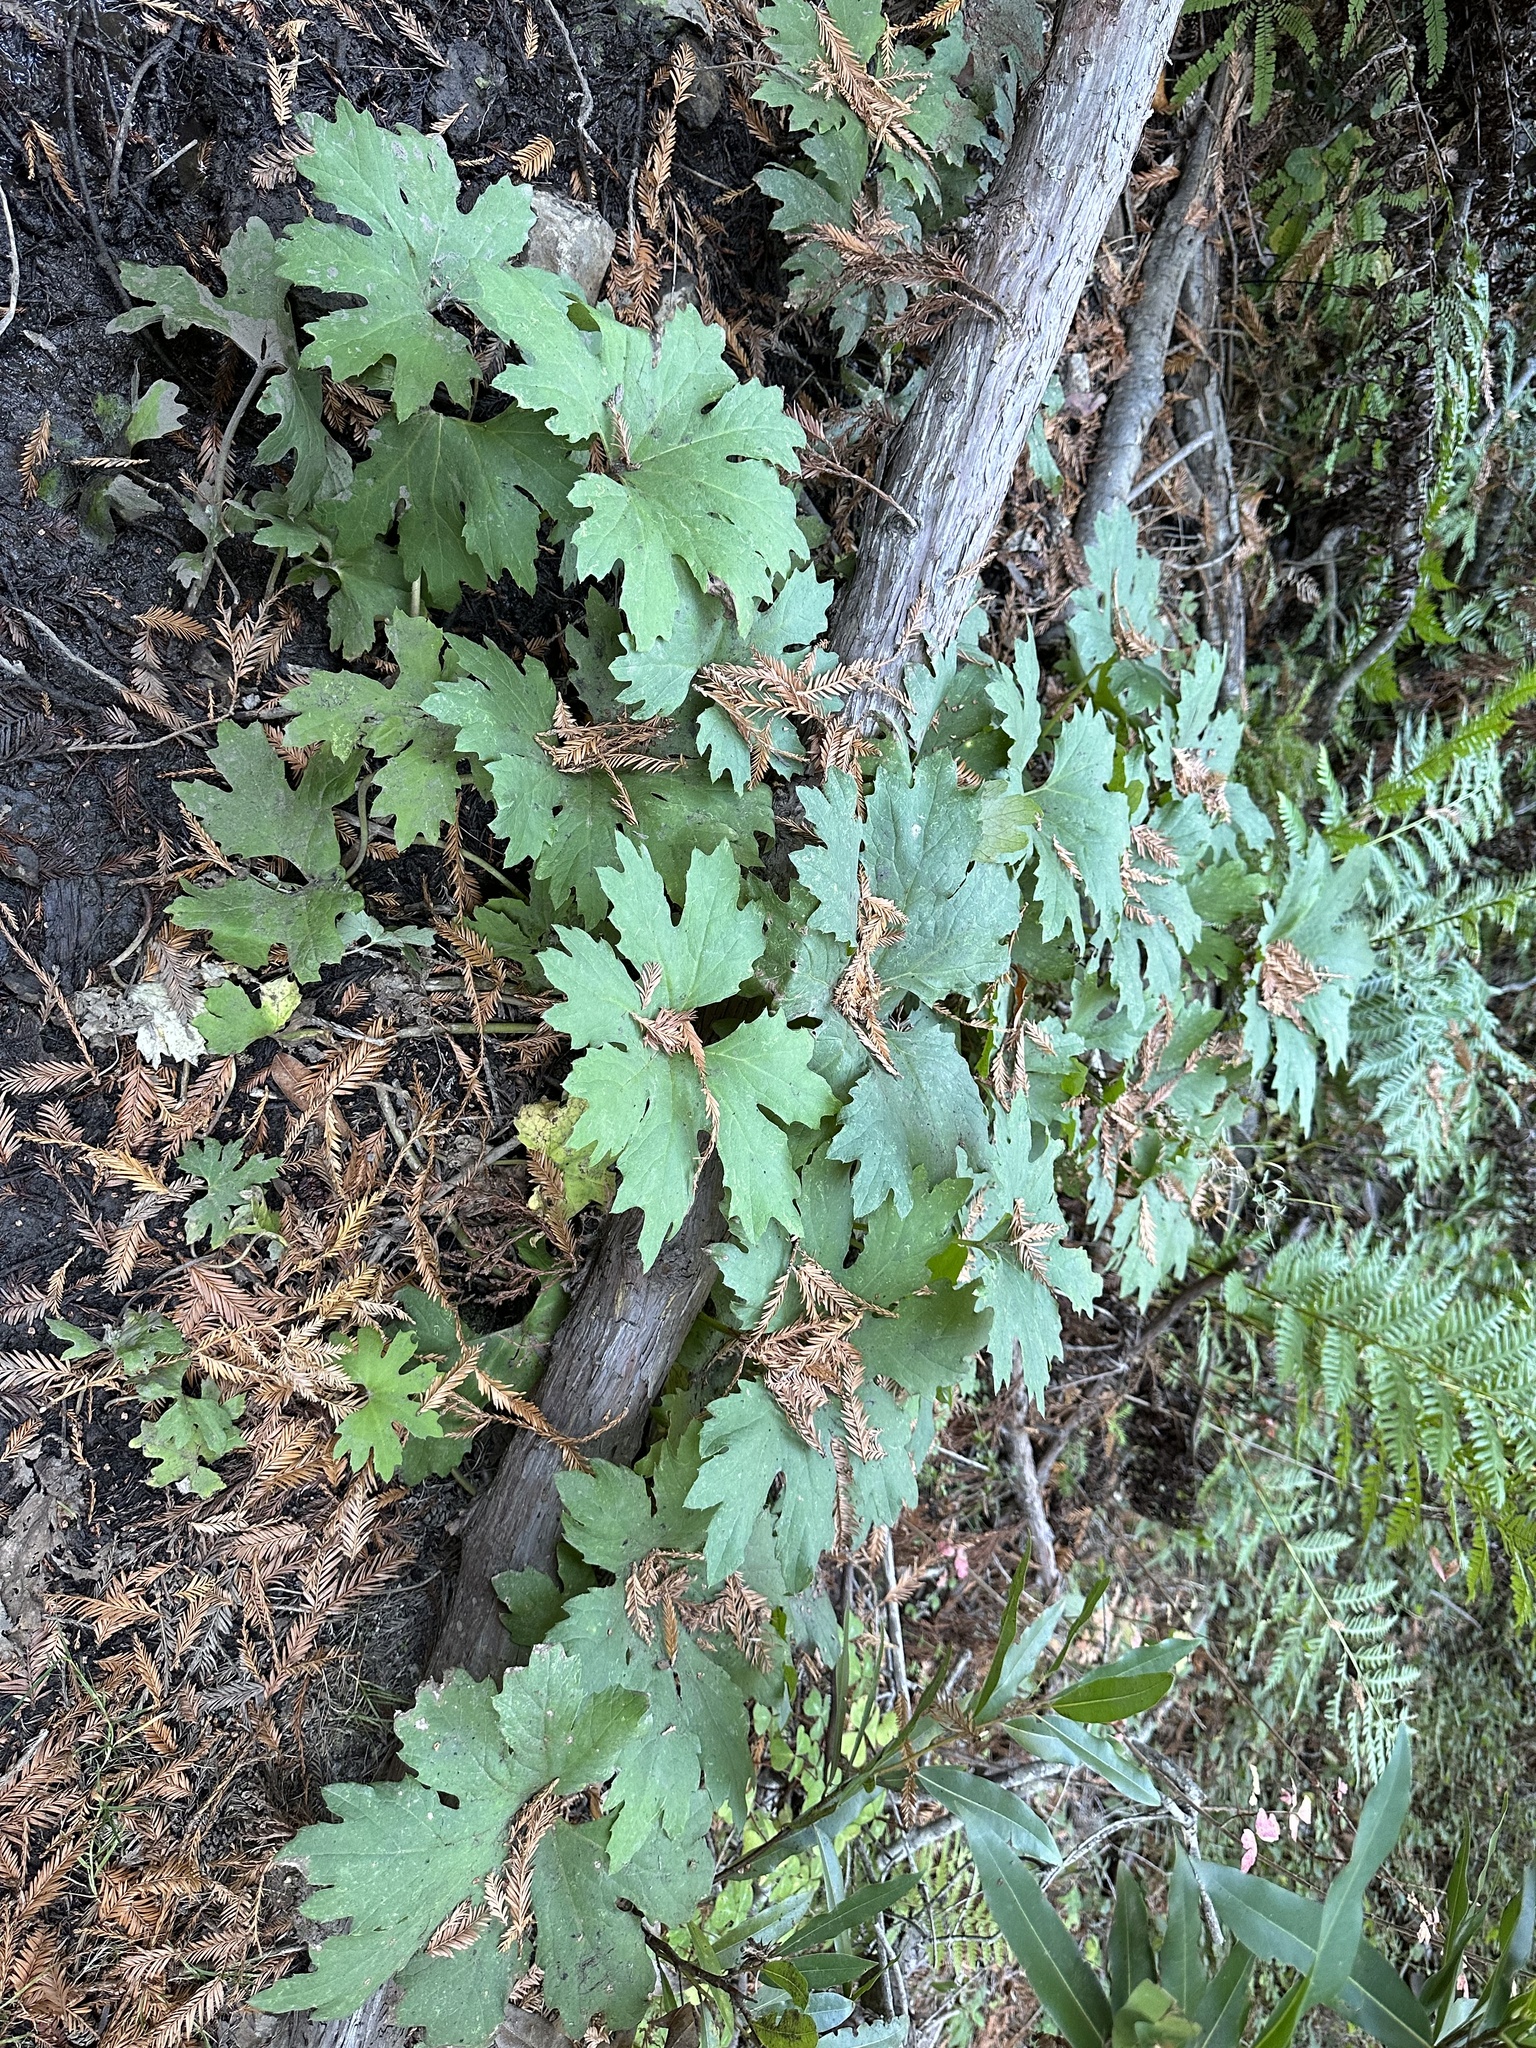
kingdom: Plantae
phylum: Tracheophyta
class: Magnoliopsida
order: Asterales
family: Asteraceae
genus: Petasites
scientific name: Petasites frigidus
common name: Arctic butterbur
